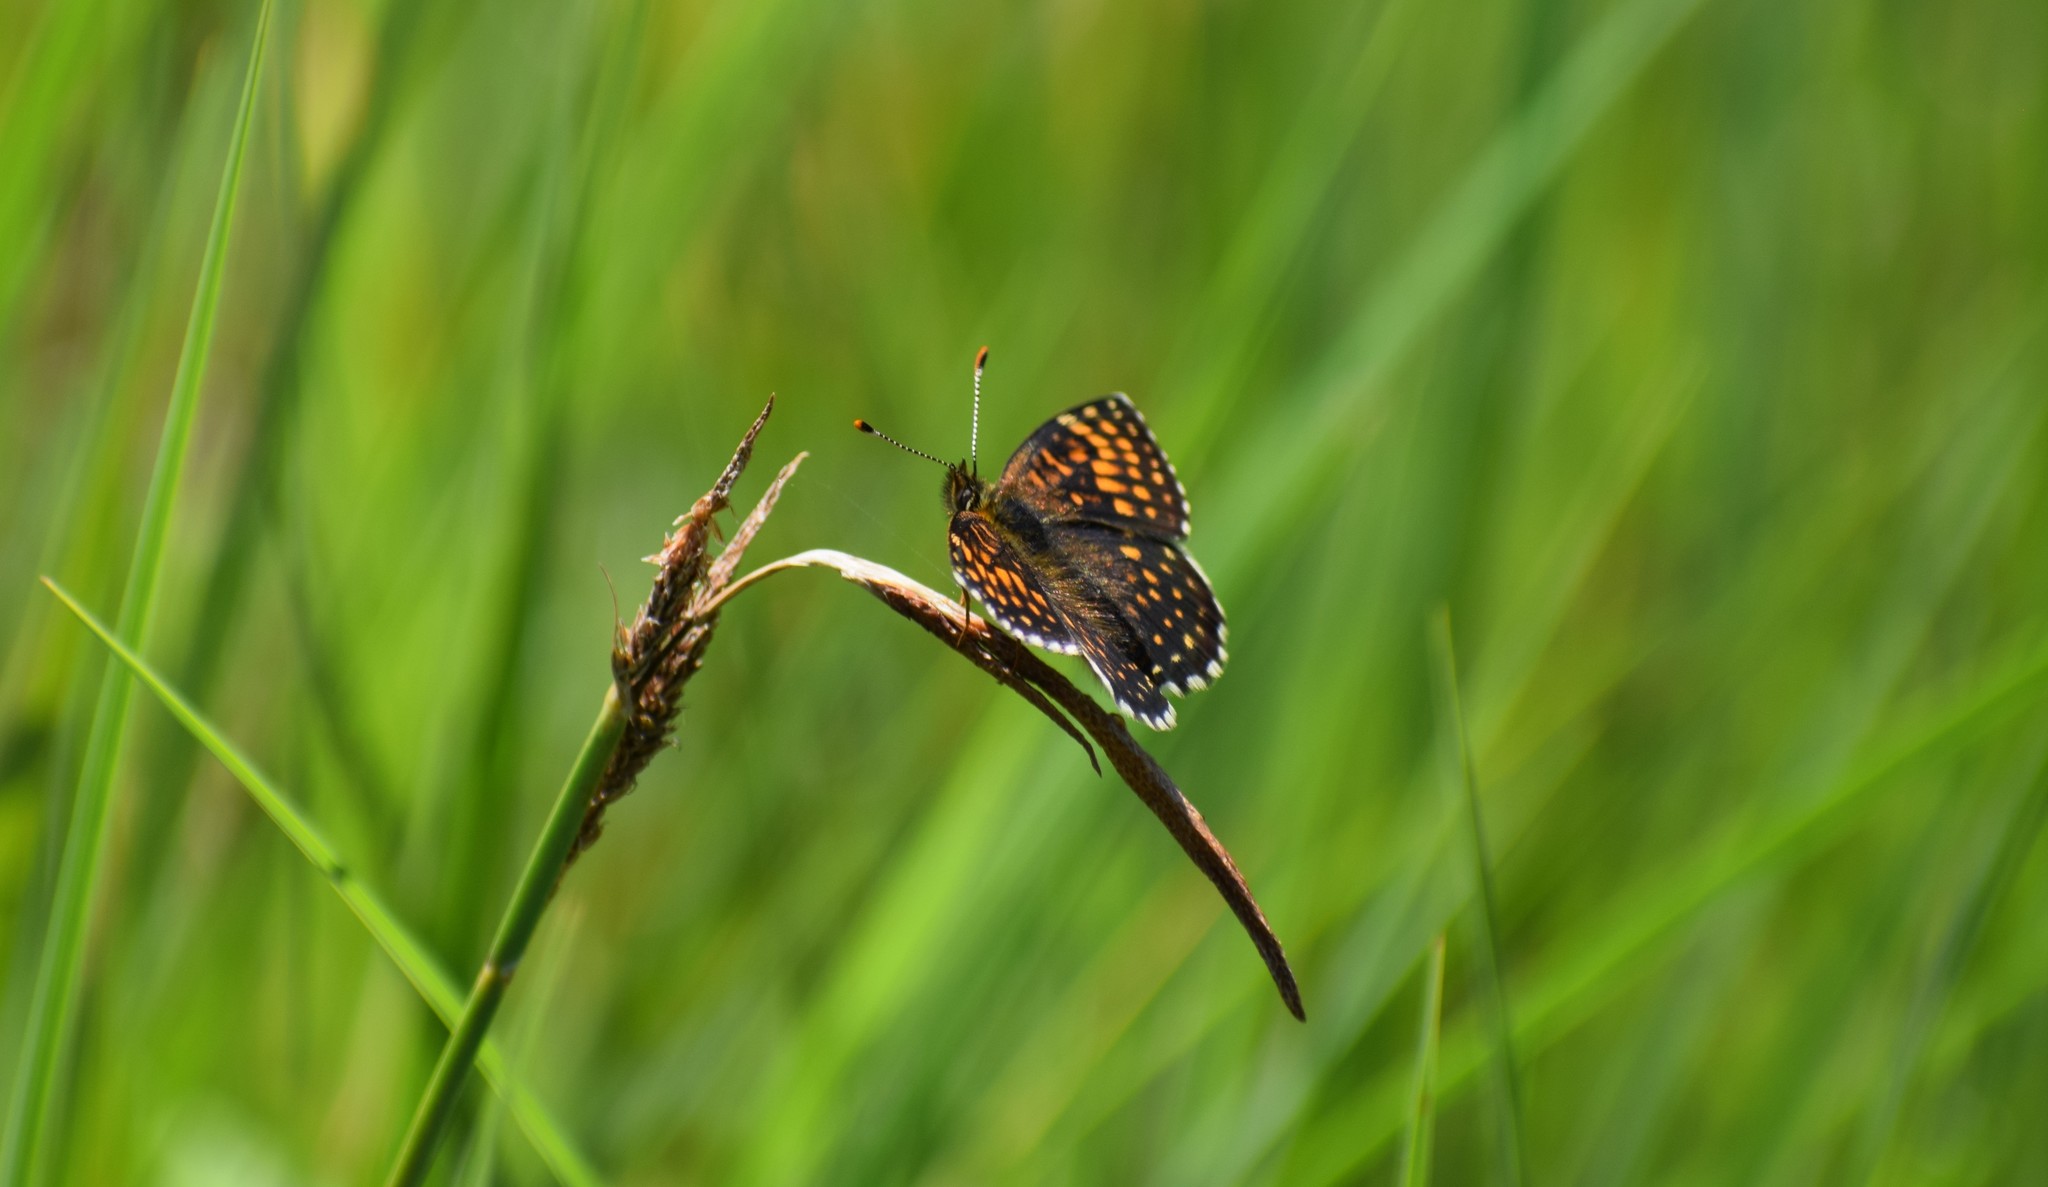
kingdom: Animalia
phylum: Arthropoda
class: Insecta
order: Lepidoptera
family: Nymphalidae
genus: Melitaea
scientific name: Melitaea diamina
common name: False heath fritillary
